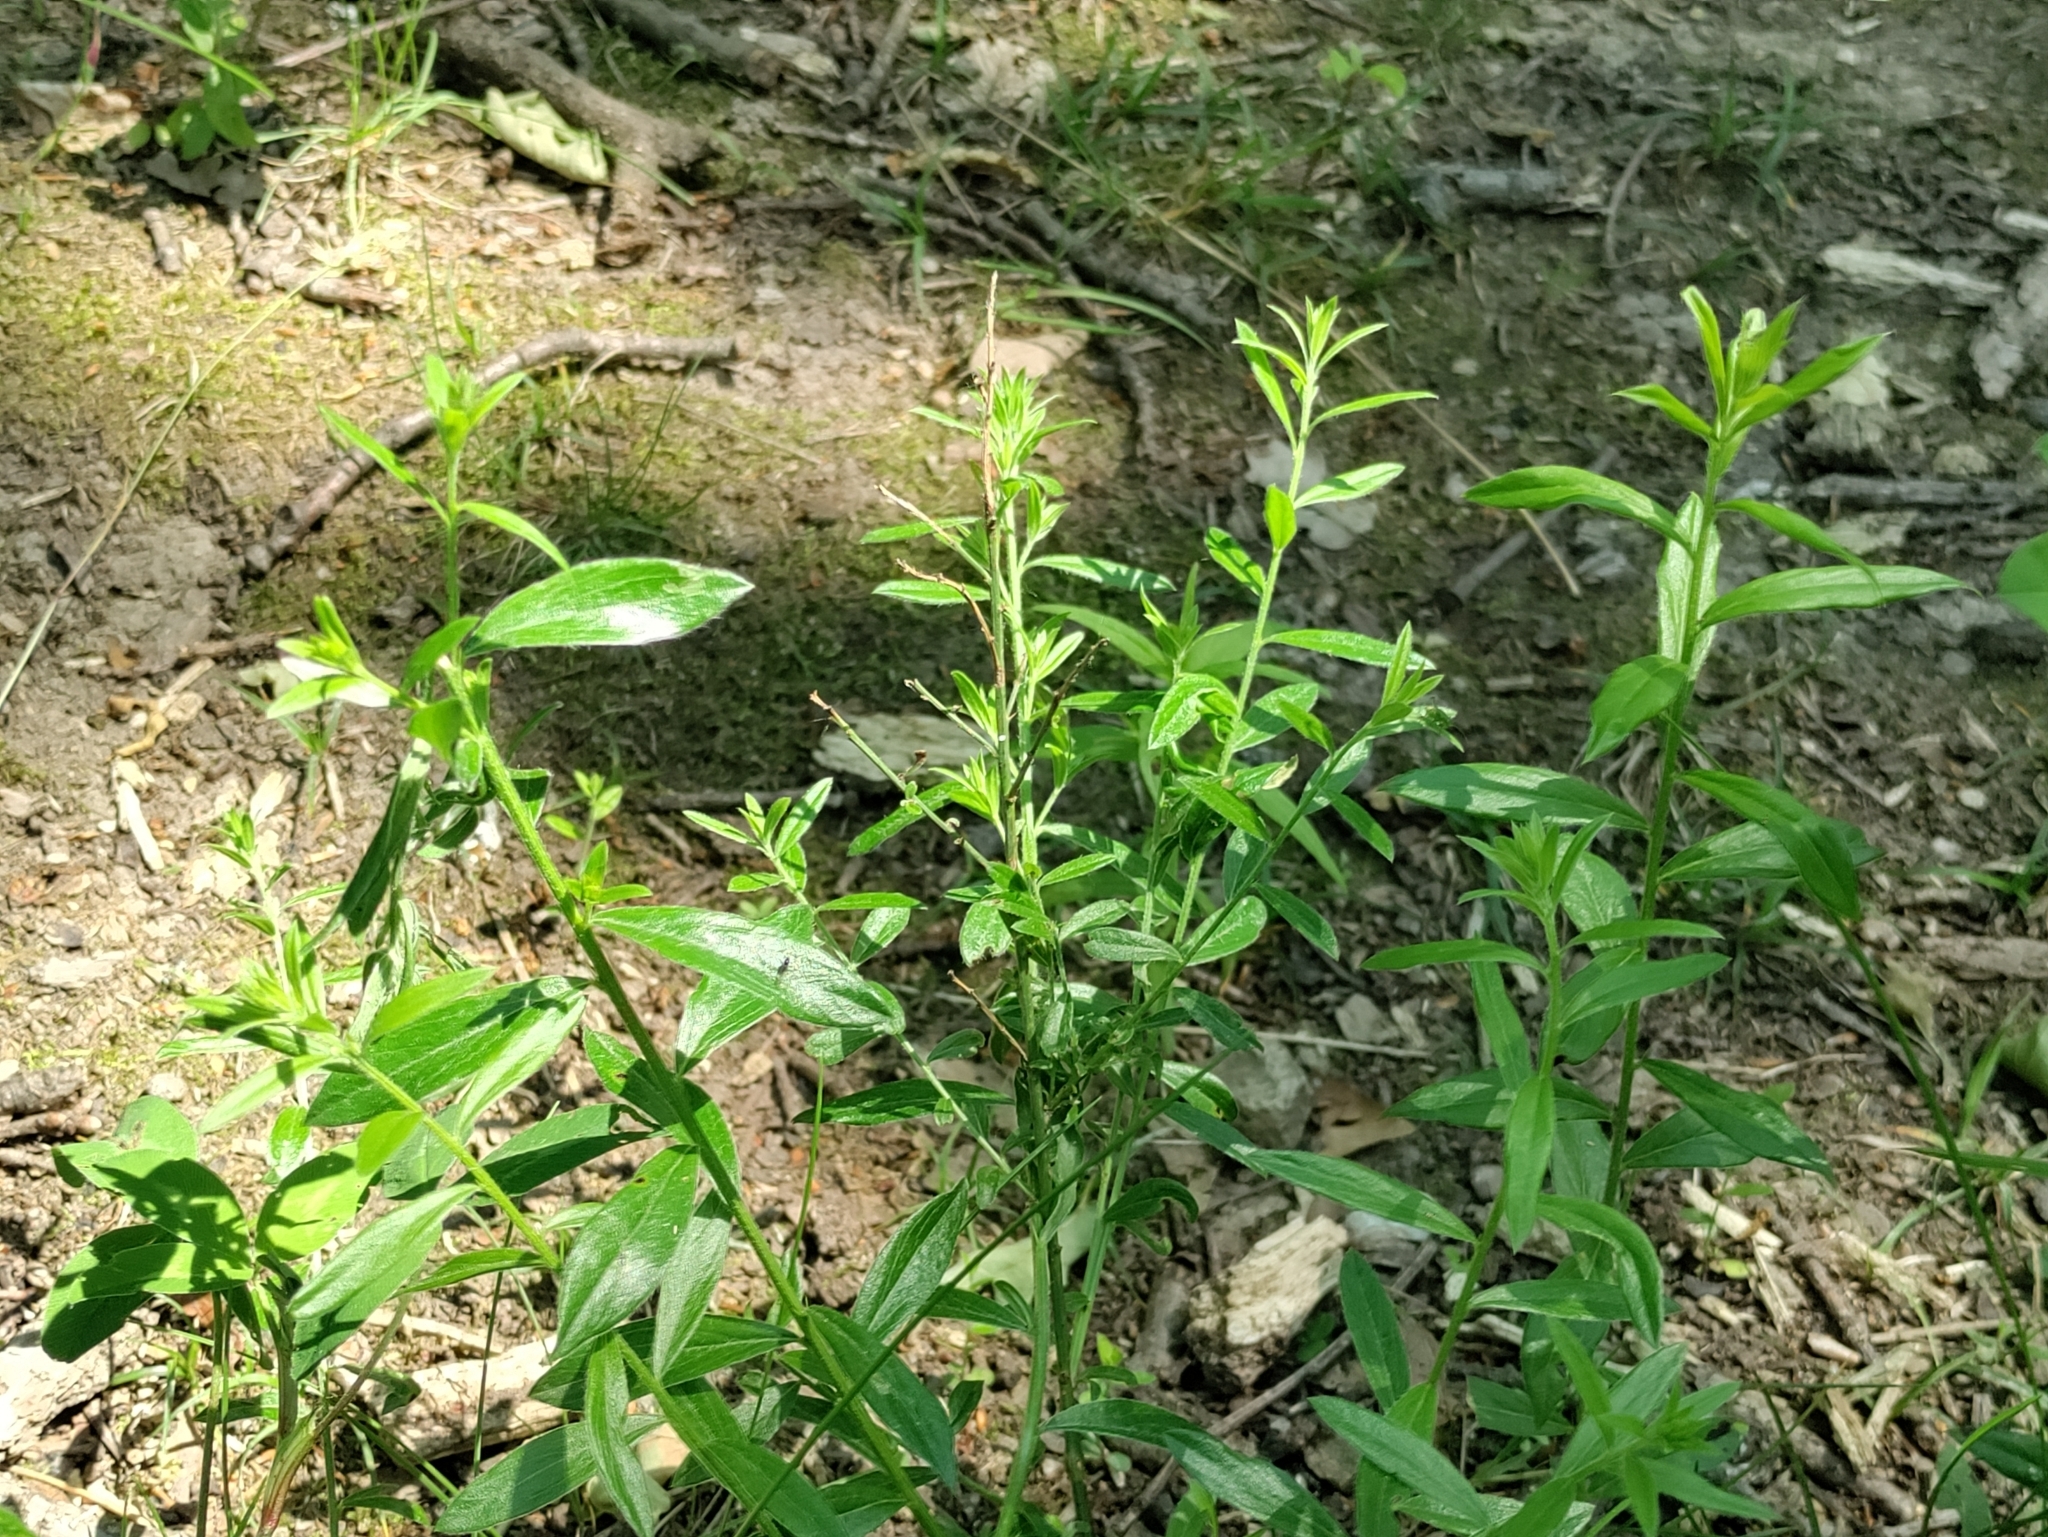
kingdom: Plantae
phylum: Tracheophyta
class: Magnoliopsida
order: Fabales
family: Fabaceae
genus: Genista
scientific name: Genista tinctoria
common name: Dyer's greenweed
